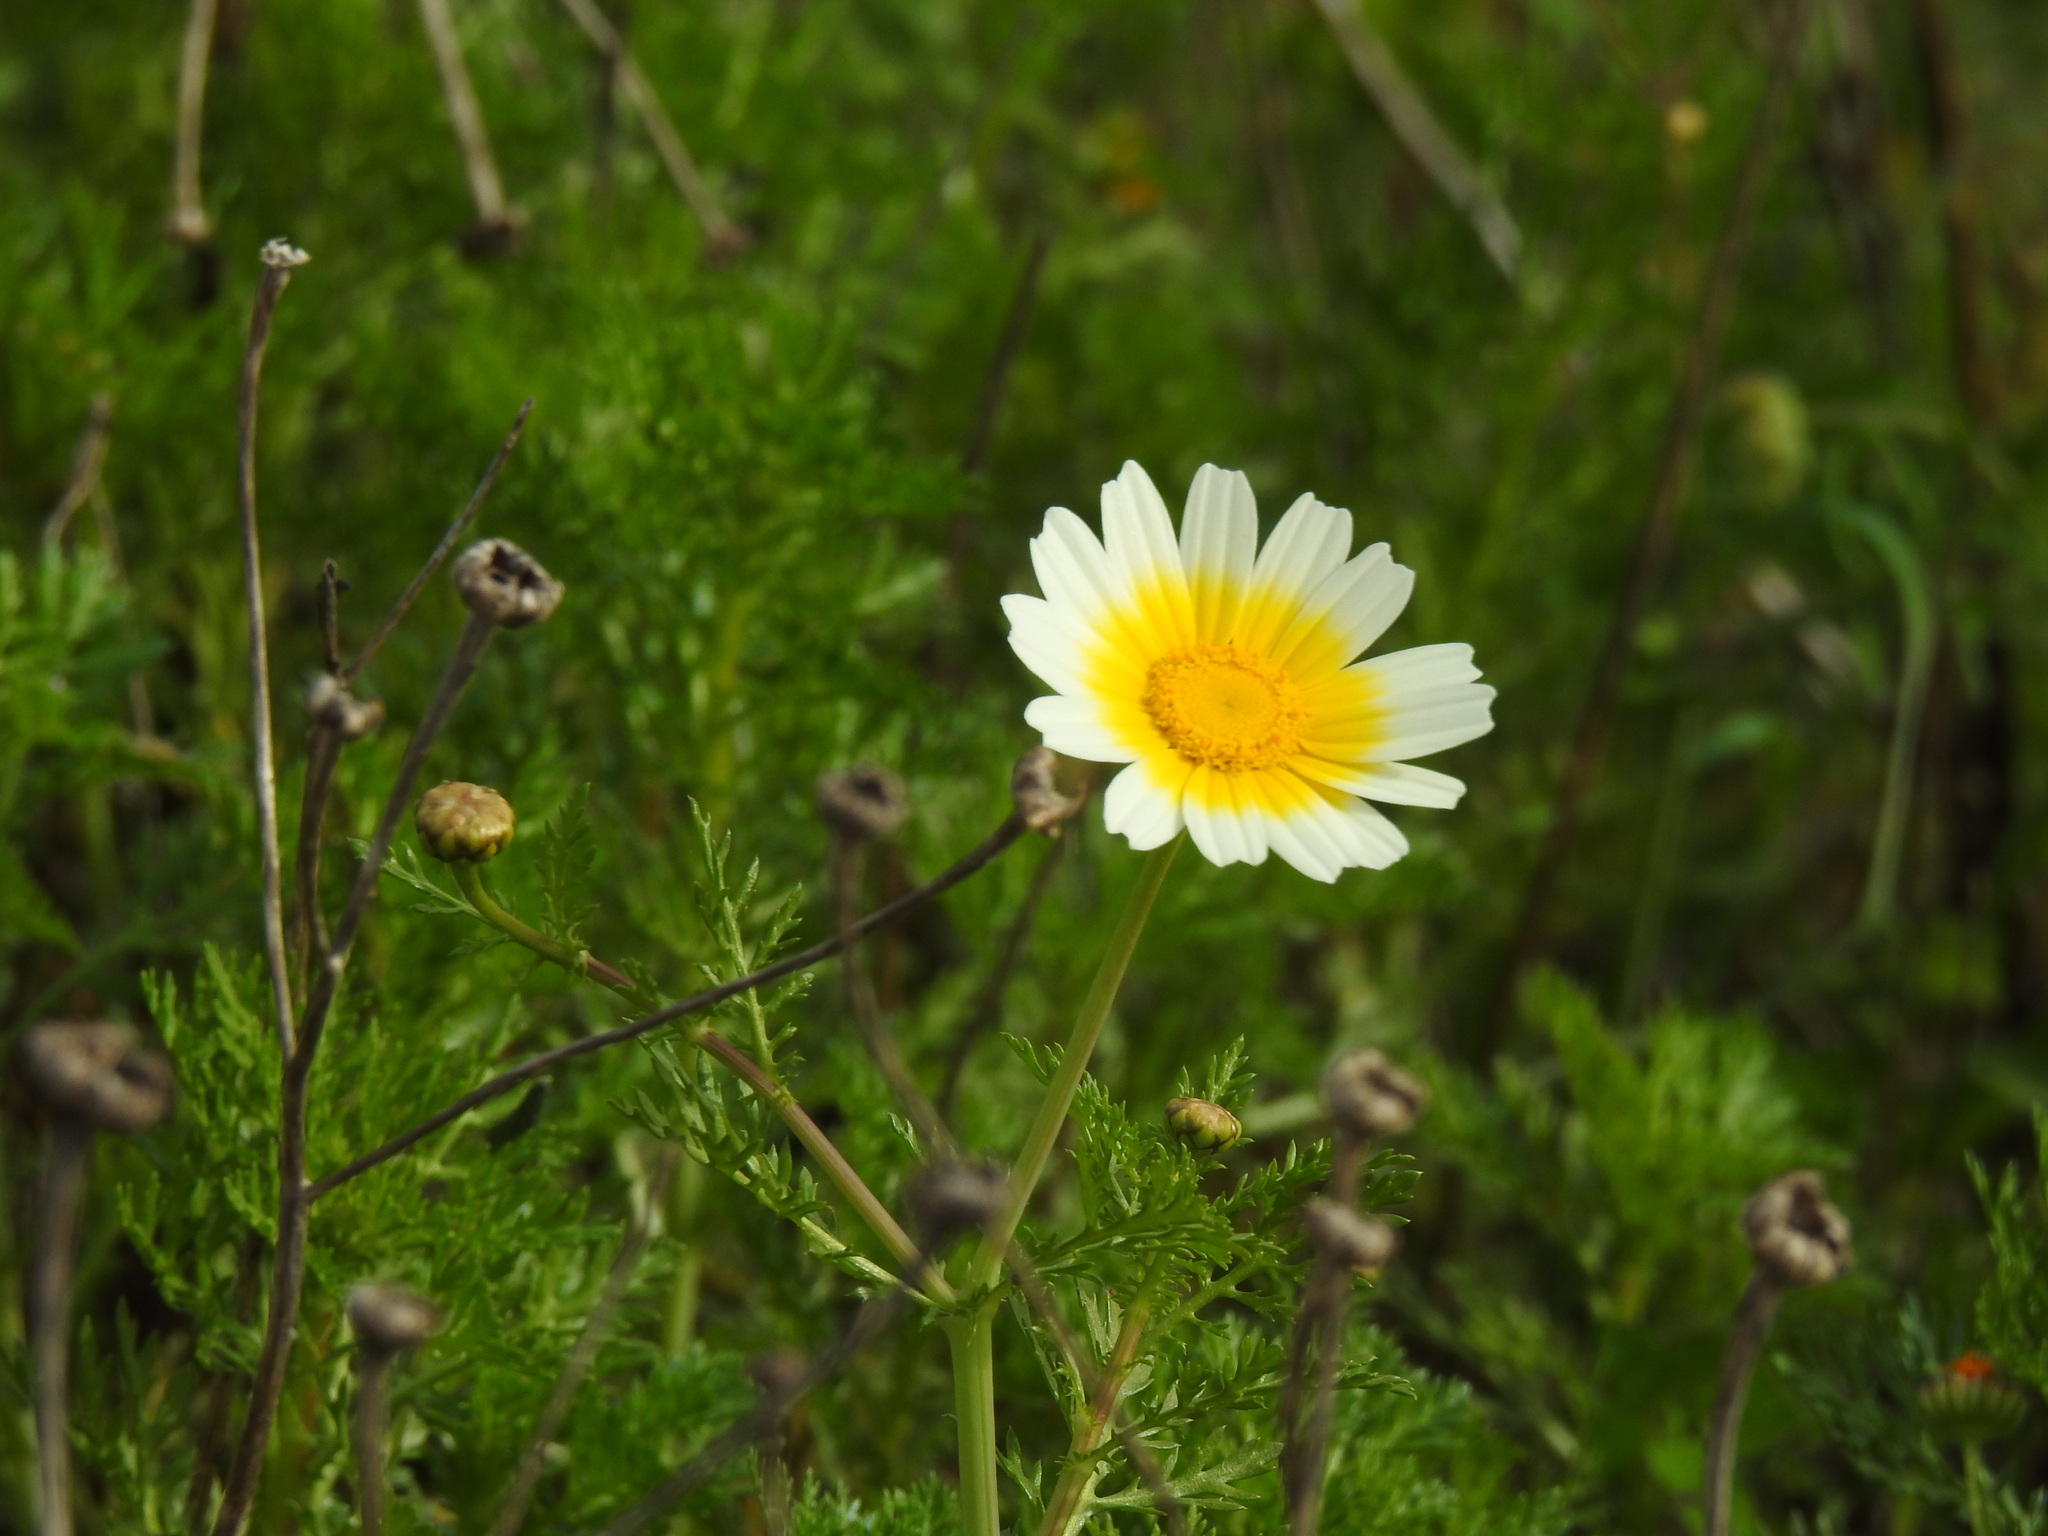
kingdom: Plantae
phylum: Tracheophyta
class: Magnoliopsida
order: Asterales
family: Asteraceae
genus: Glebionis
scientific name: Glebionis coronaria
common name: Crowndaisy
